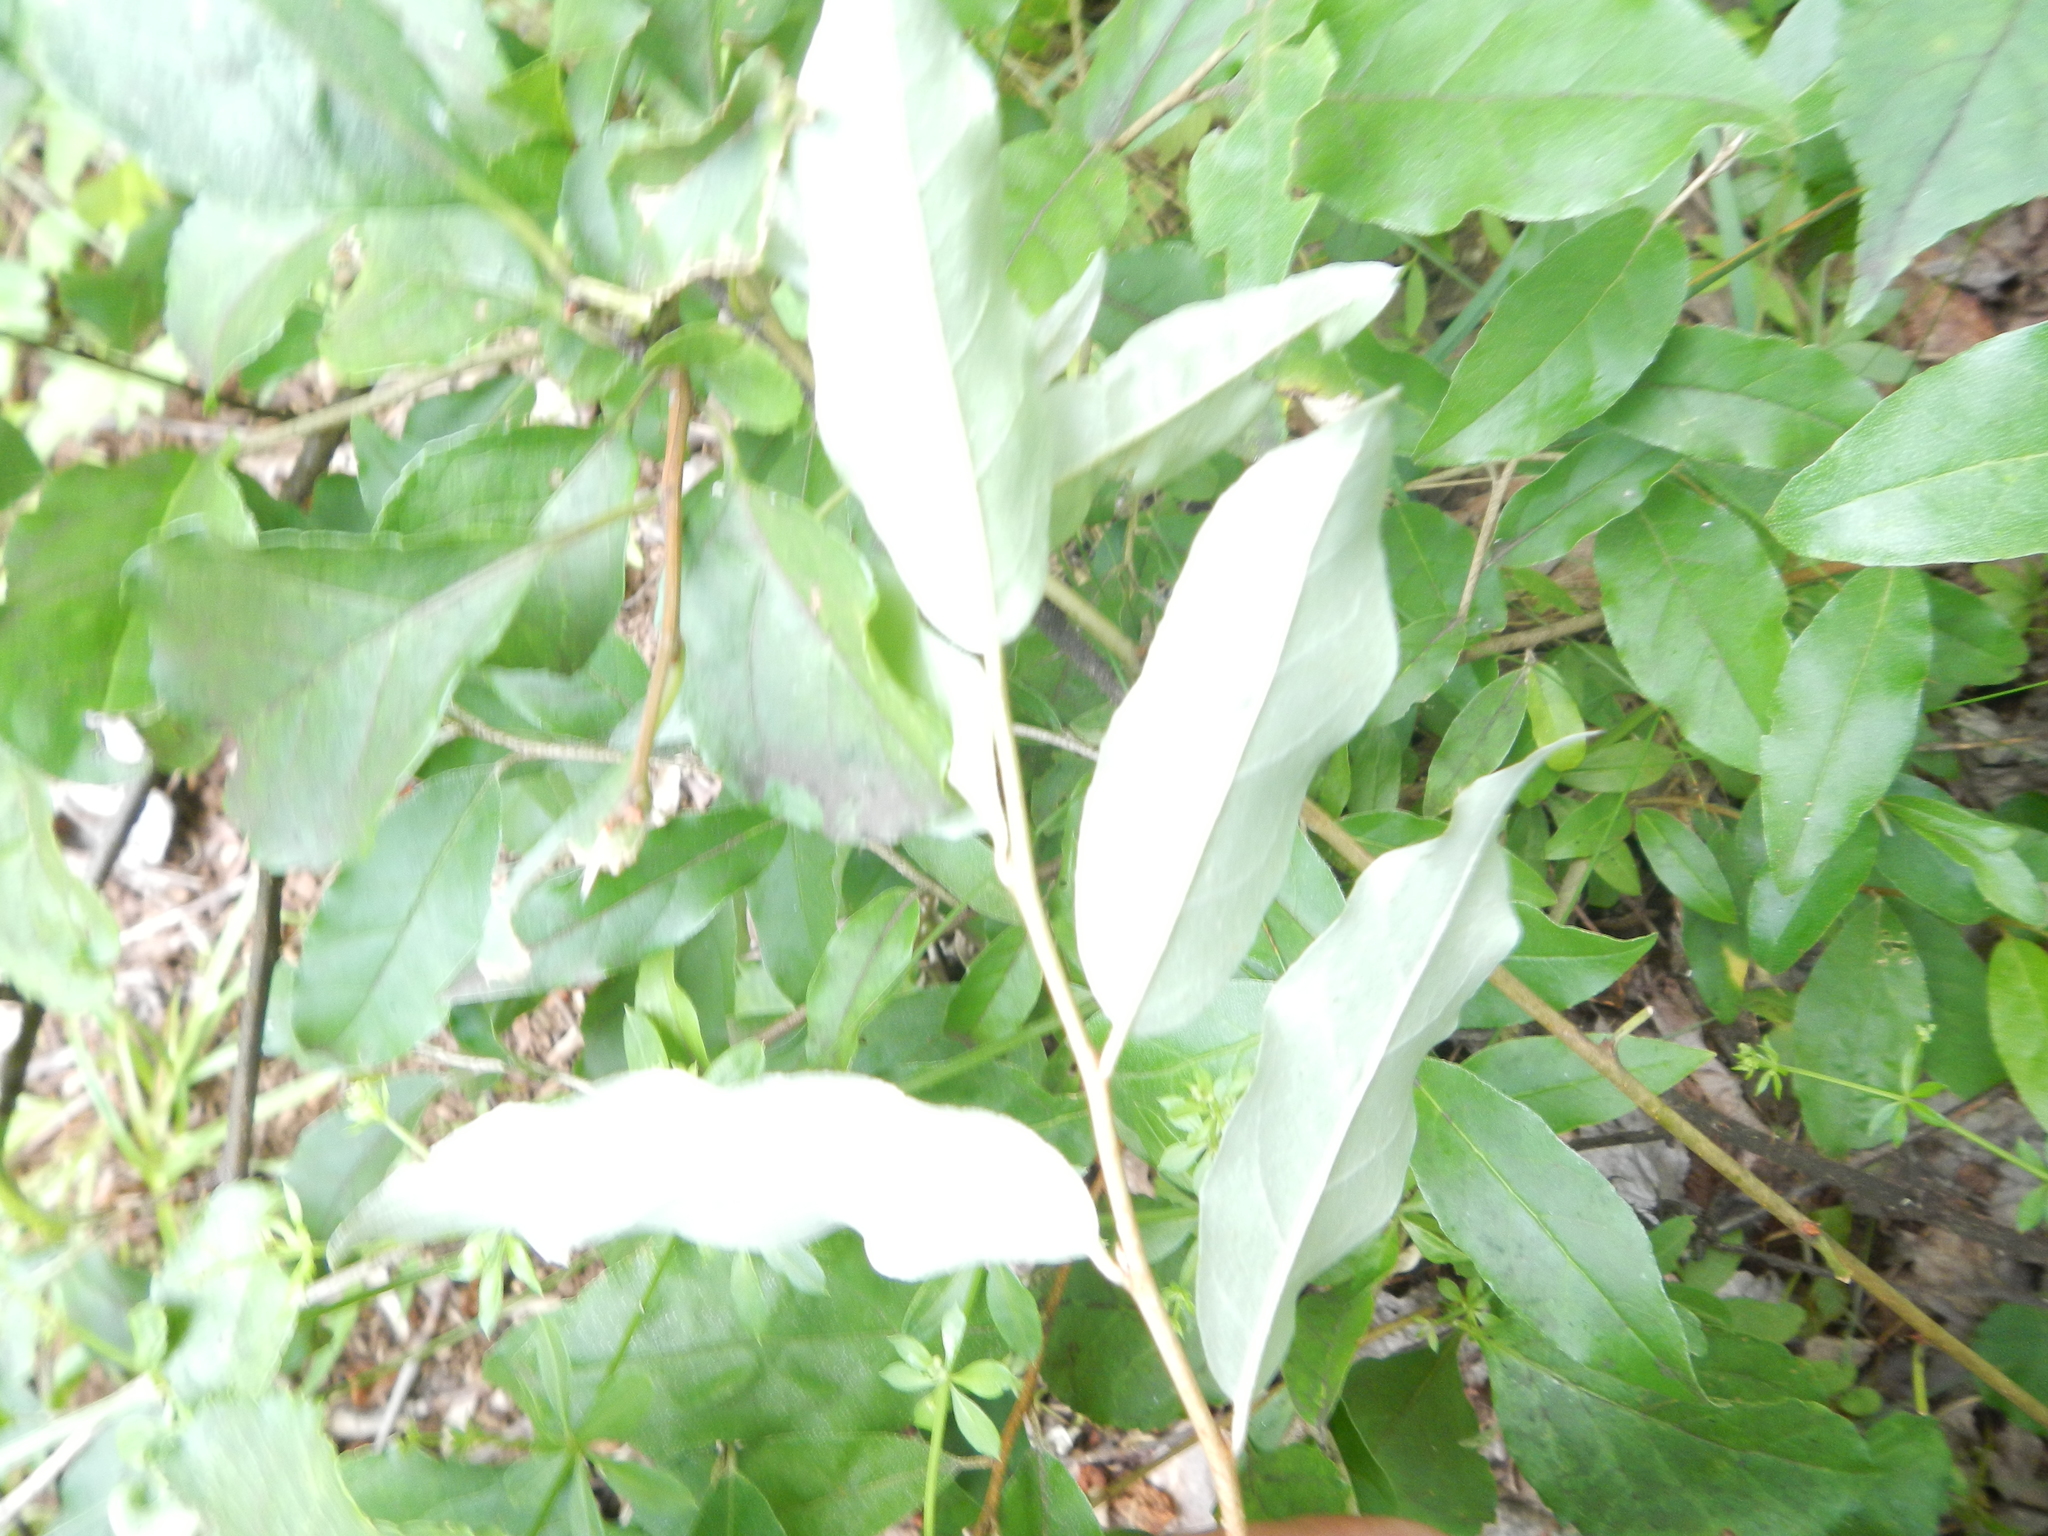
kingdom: Plantae
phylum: Tracheophyta
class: Magnoliopsida
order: Rosales
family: Elaeagnaceae
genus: Elaeagnus
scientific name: Elaeagnus umbellata
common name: Autumn olive
